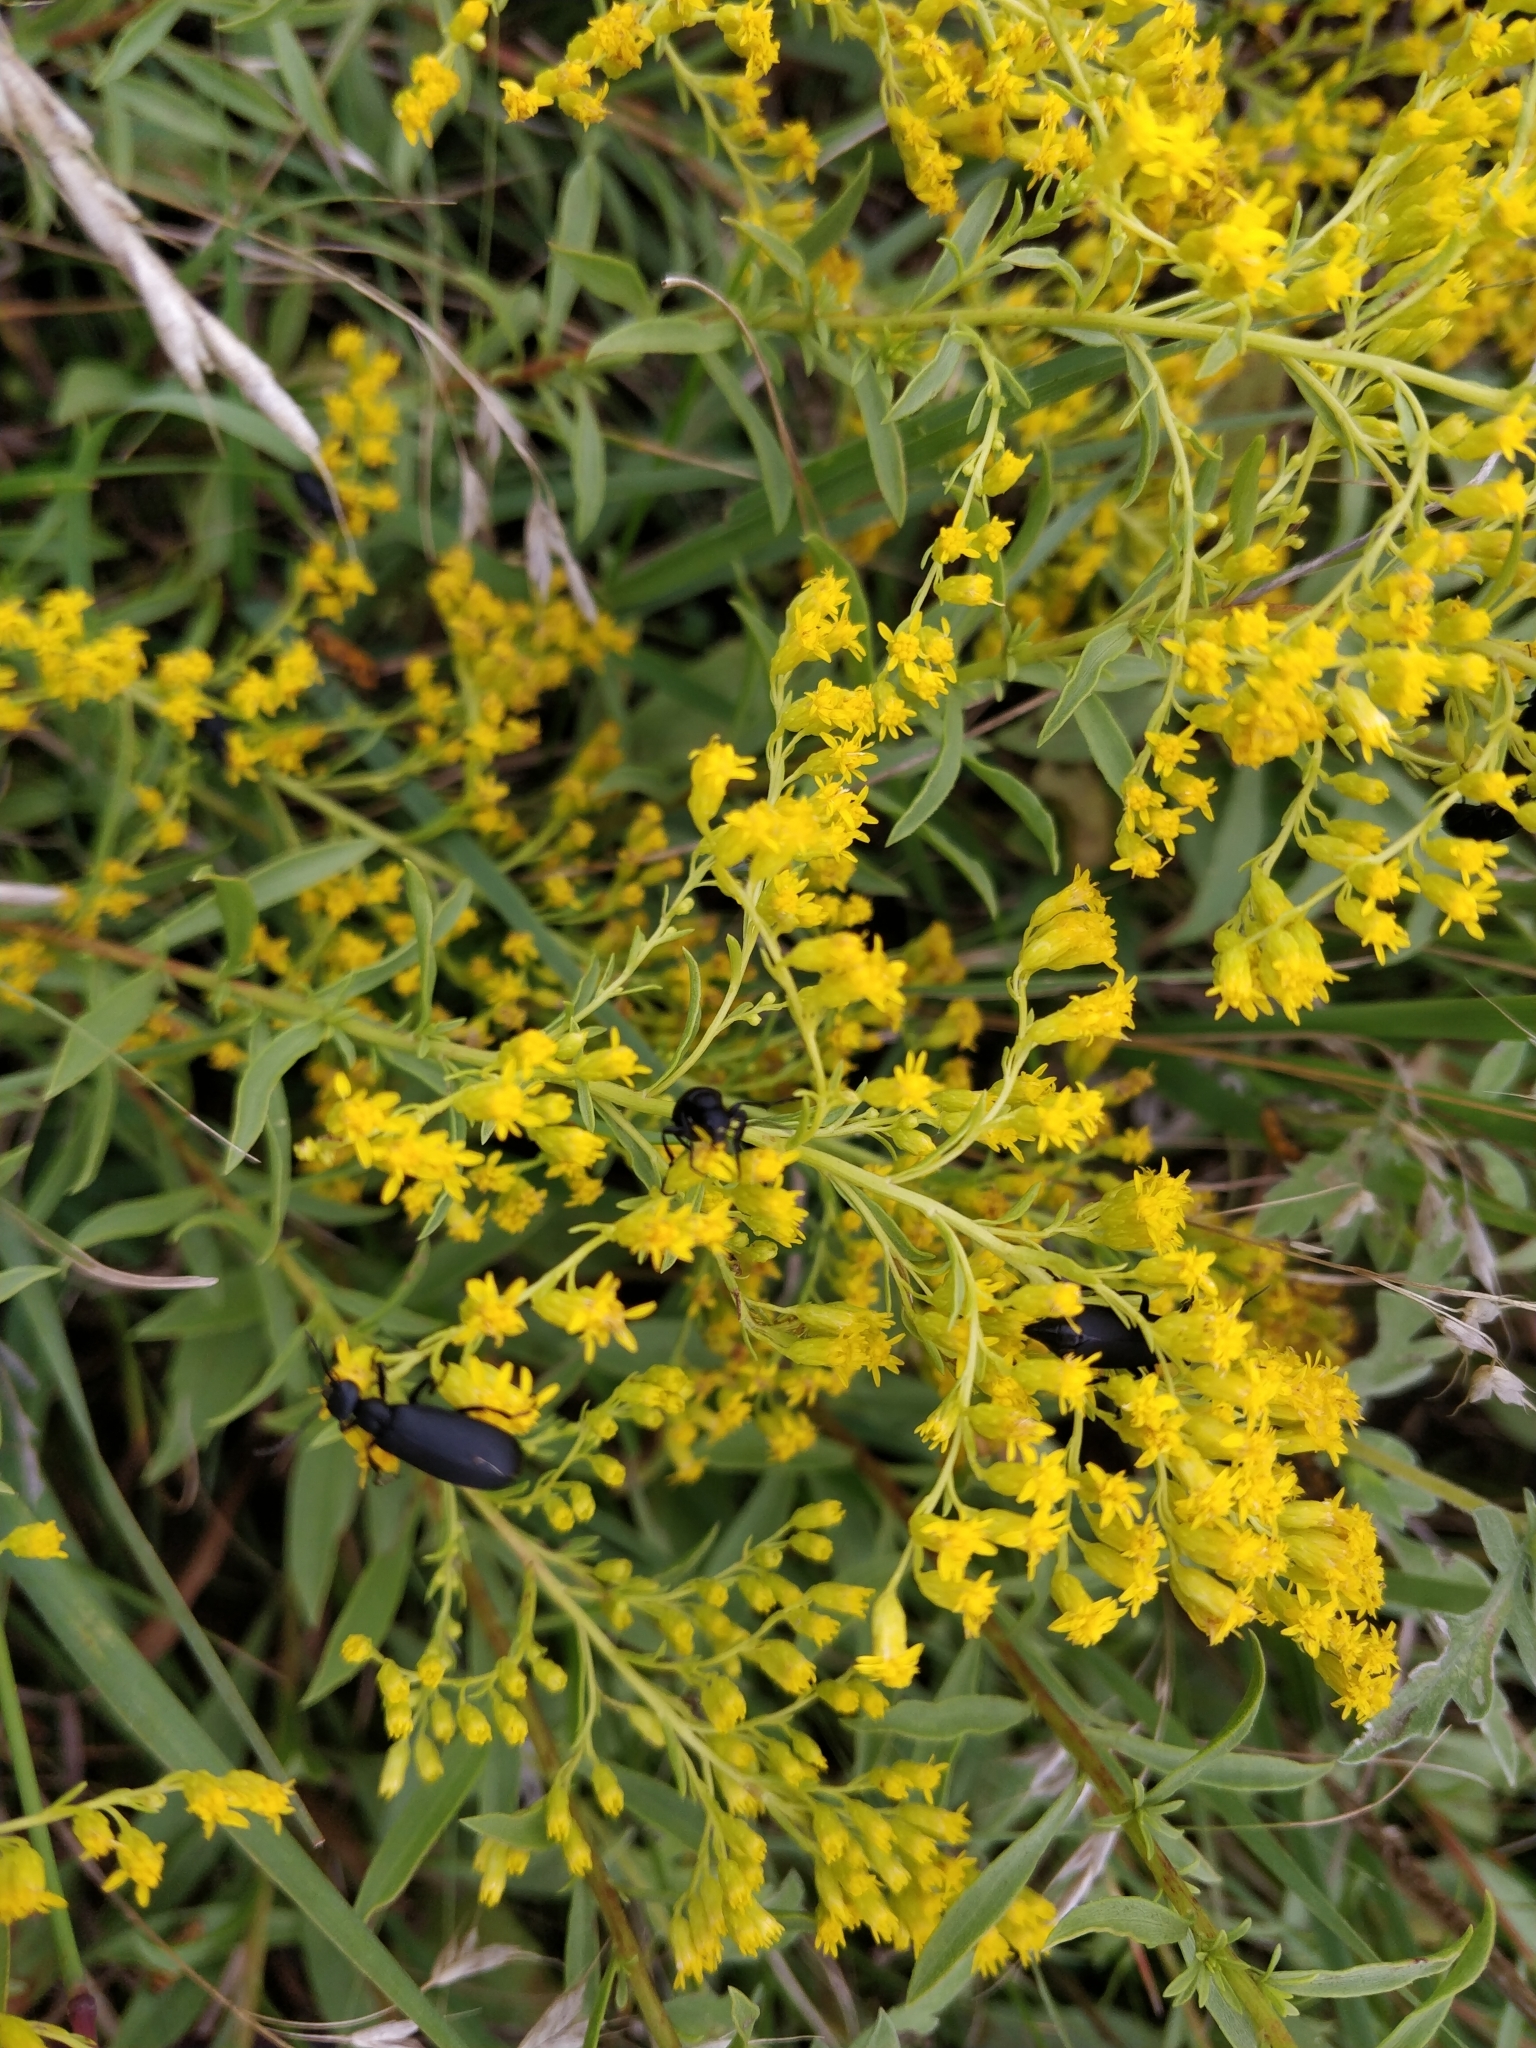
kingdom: Animalia
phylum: Arthropoda
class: Insecta
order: Coleoptera
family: Meloidae
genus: Epicauta
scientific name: Epicauta pensylvanica
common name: Black blister beetle
